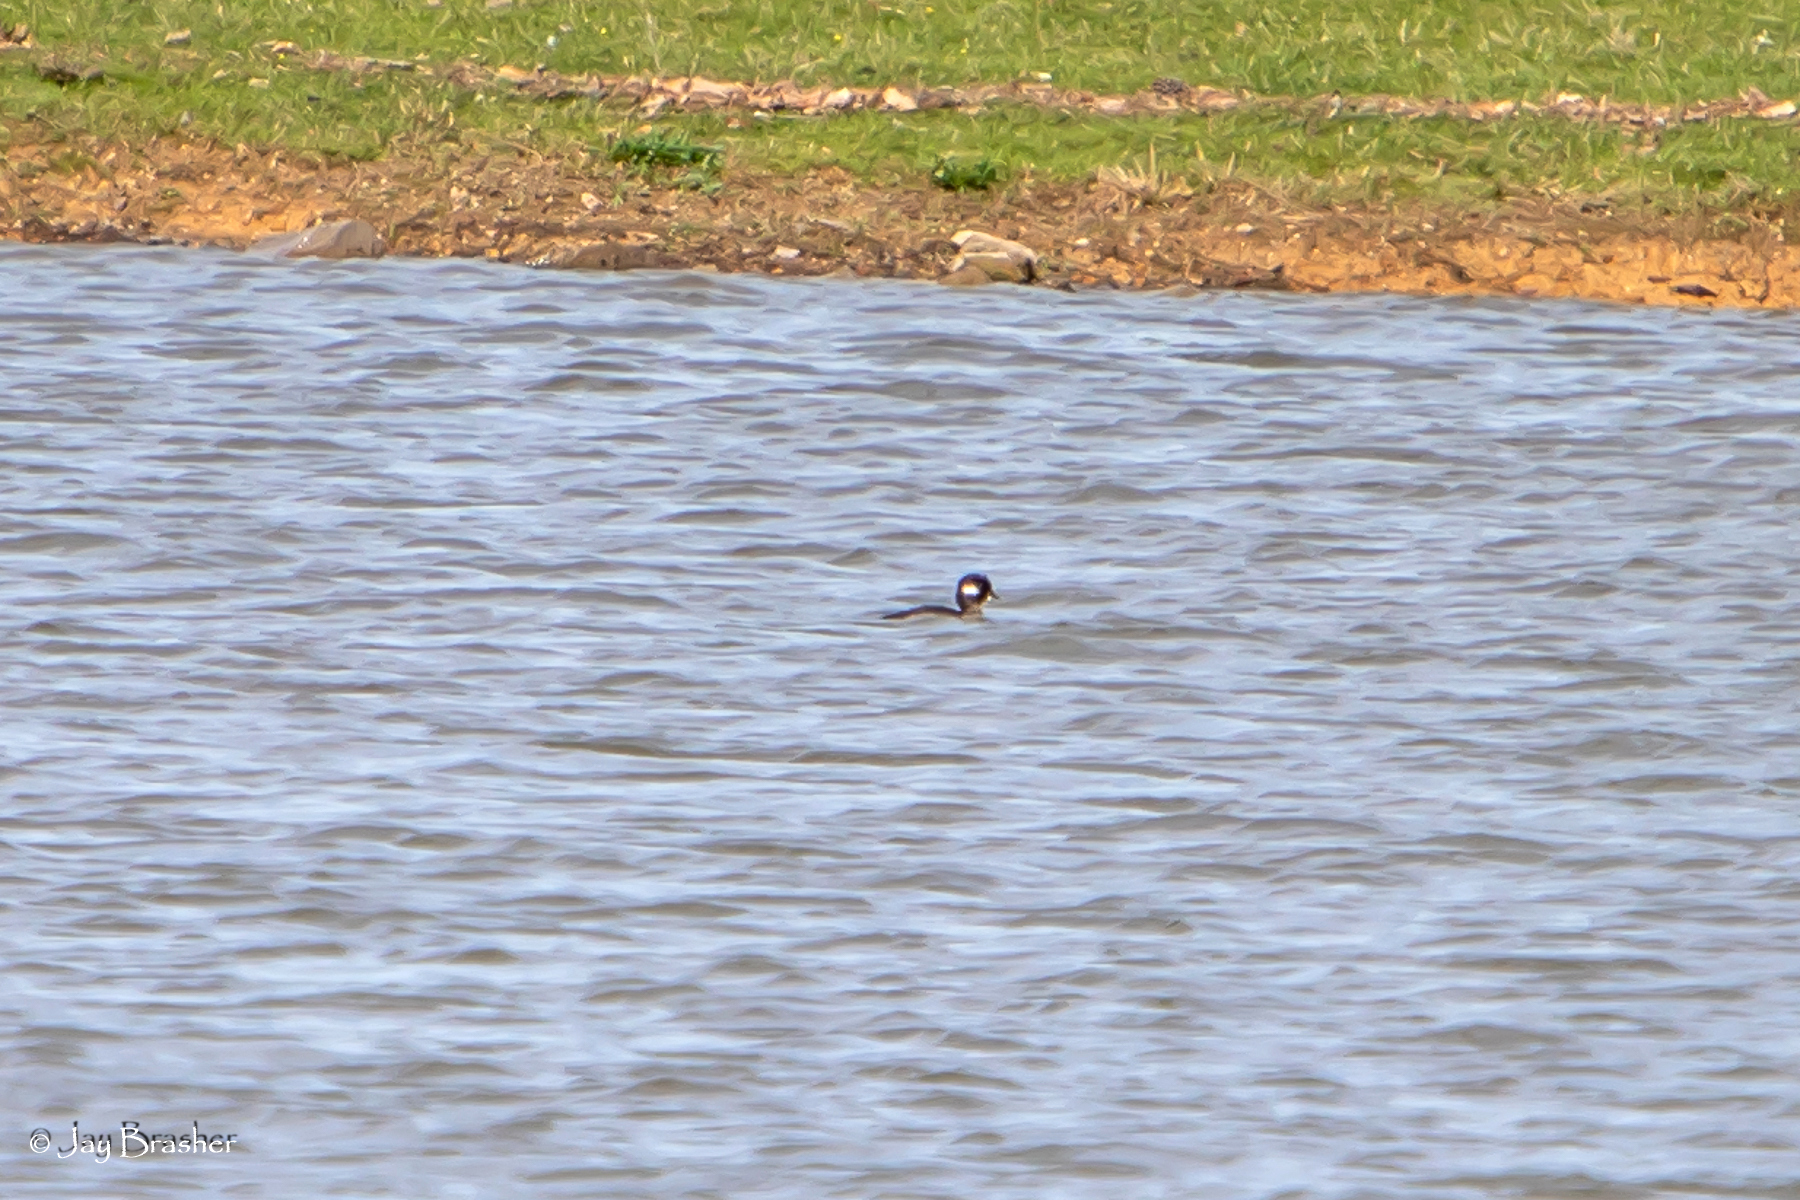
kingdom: Animalia
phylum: Chordata
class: Aves
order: Anseriformes
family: Anatidae
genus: Bucephala
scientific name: Bucephala albeola
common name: Bufflehead
